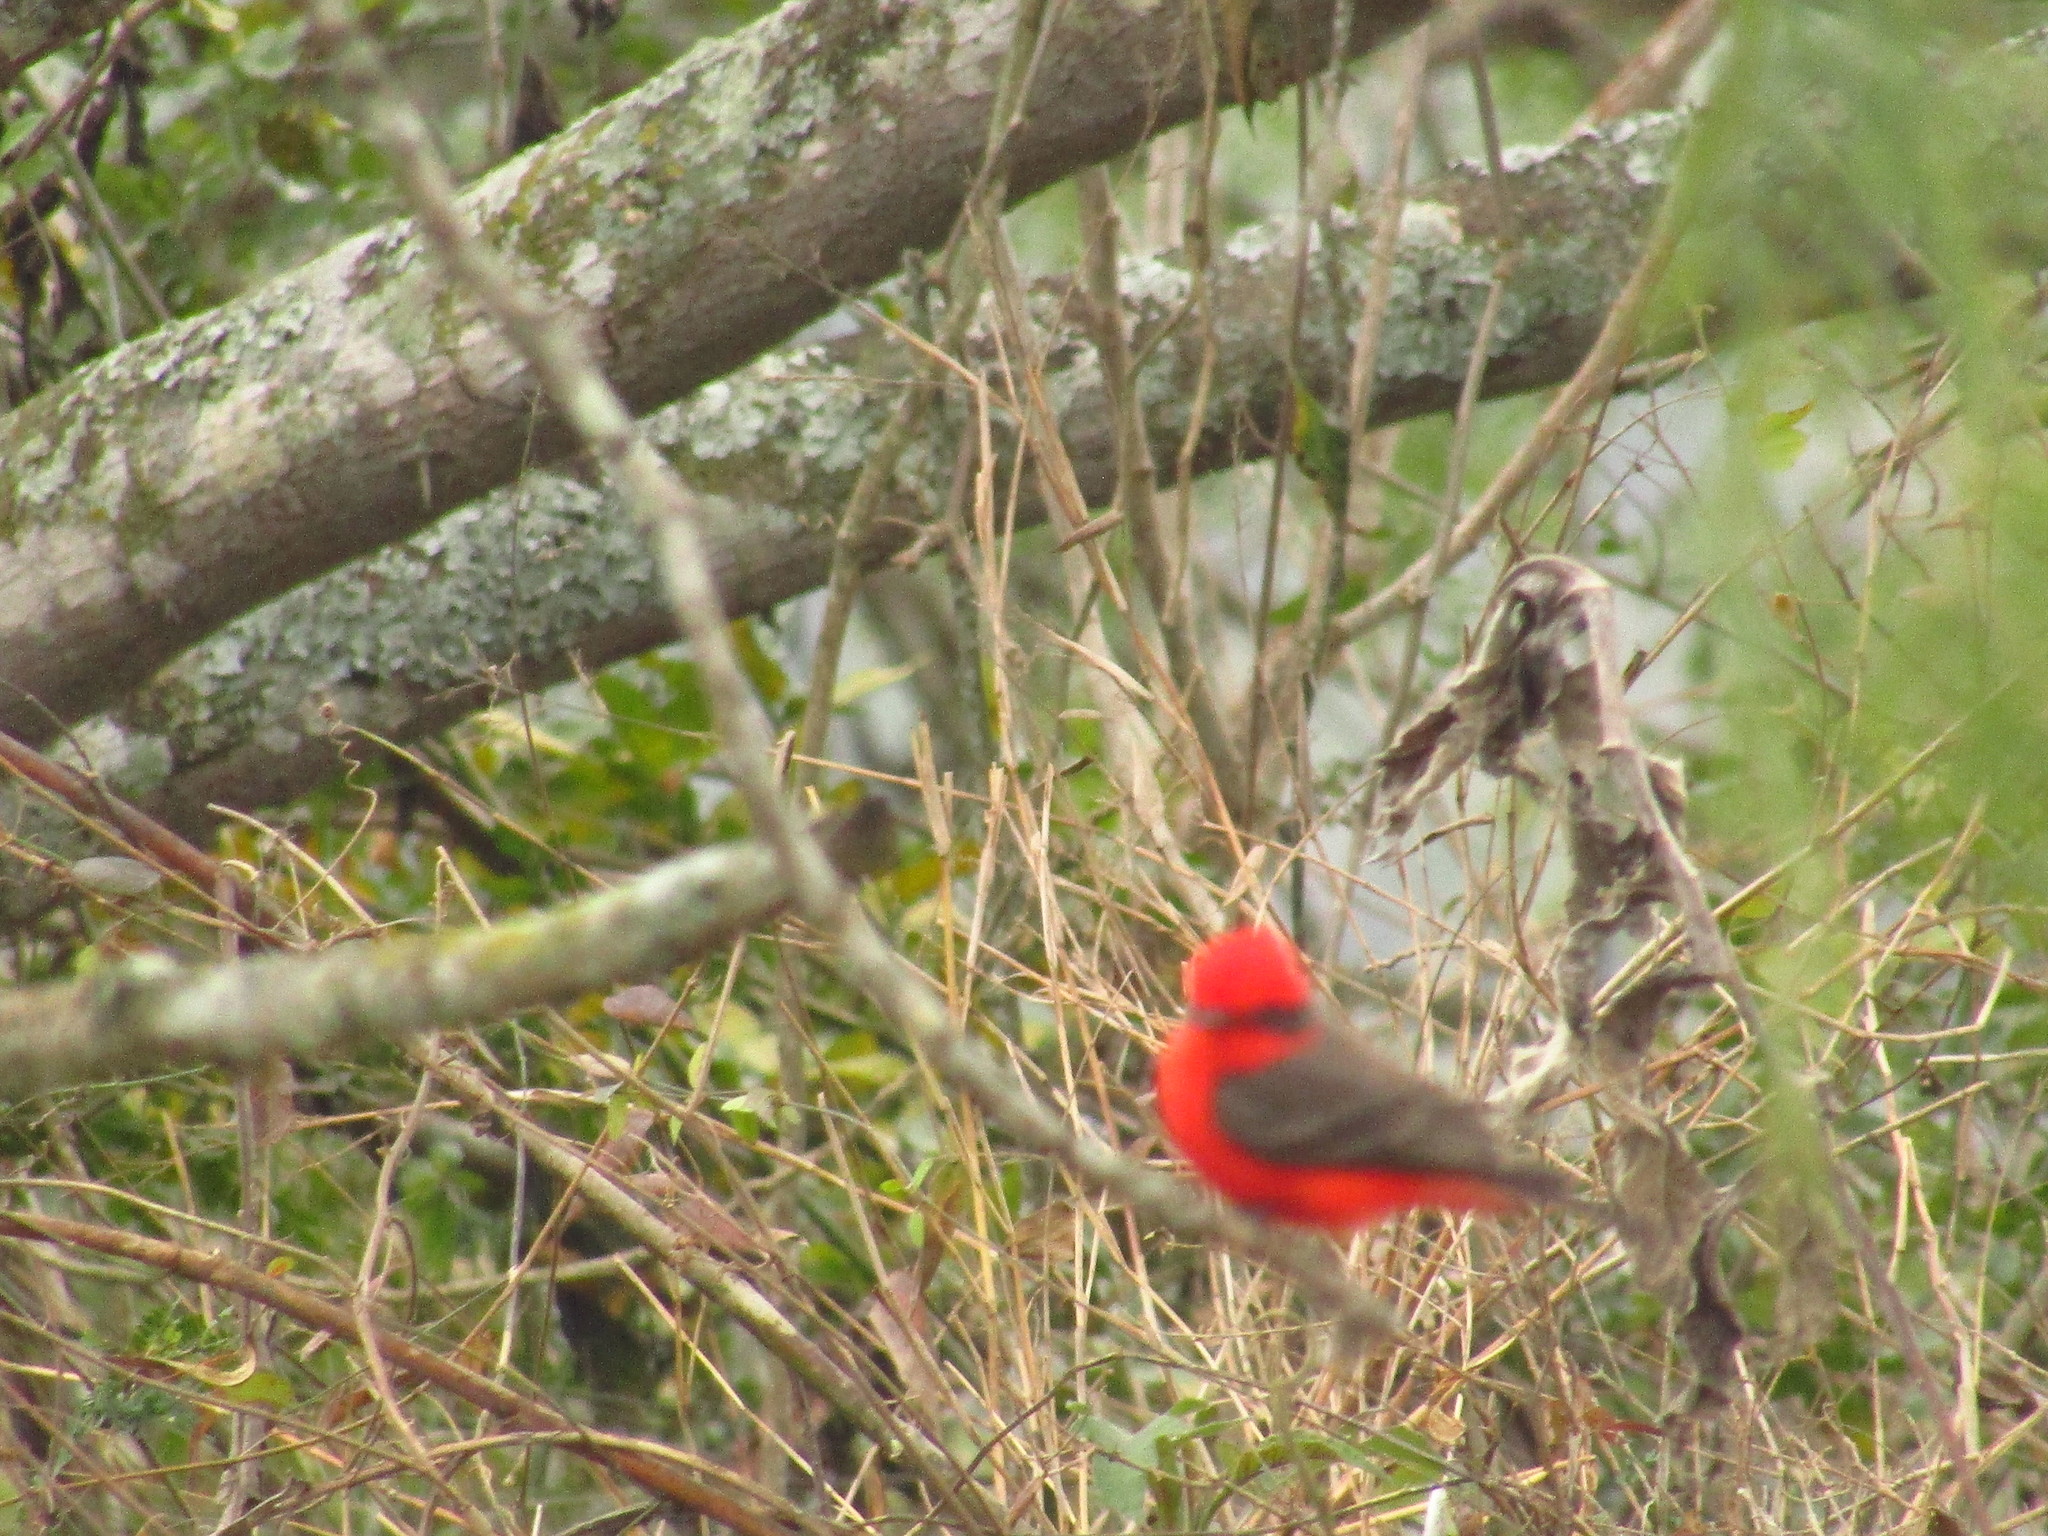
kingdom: Animalia
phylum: Chordata
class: Aves
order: Passeriformes
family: Tyrannidae
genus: Pyrocephalus
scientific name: Pyrocephalus rubinus
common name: Vermilion flycatcher
